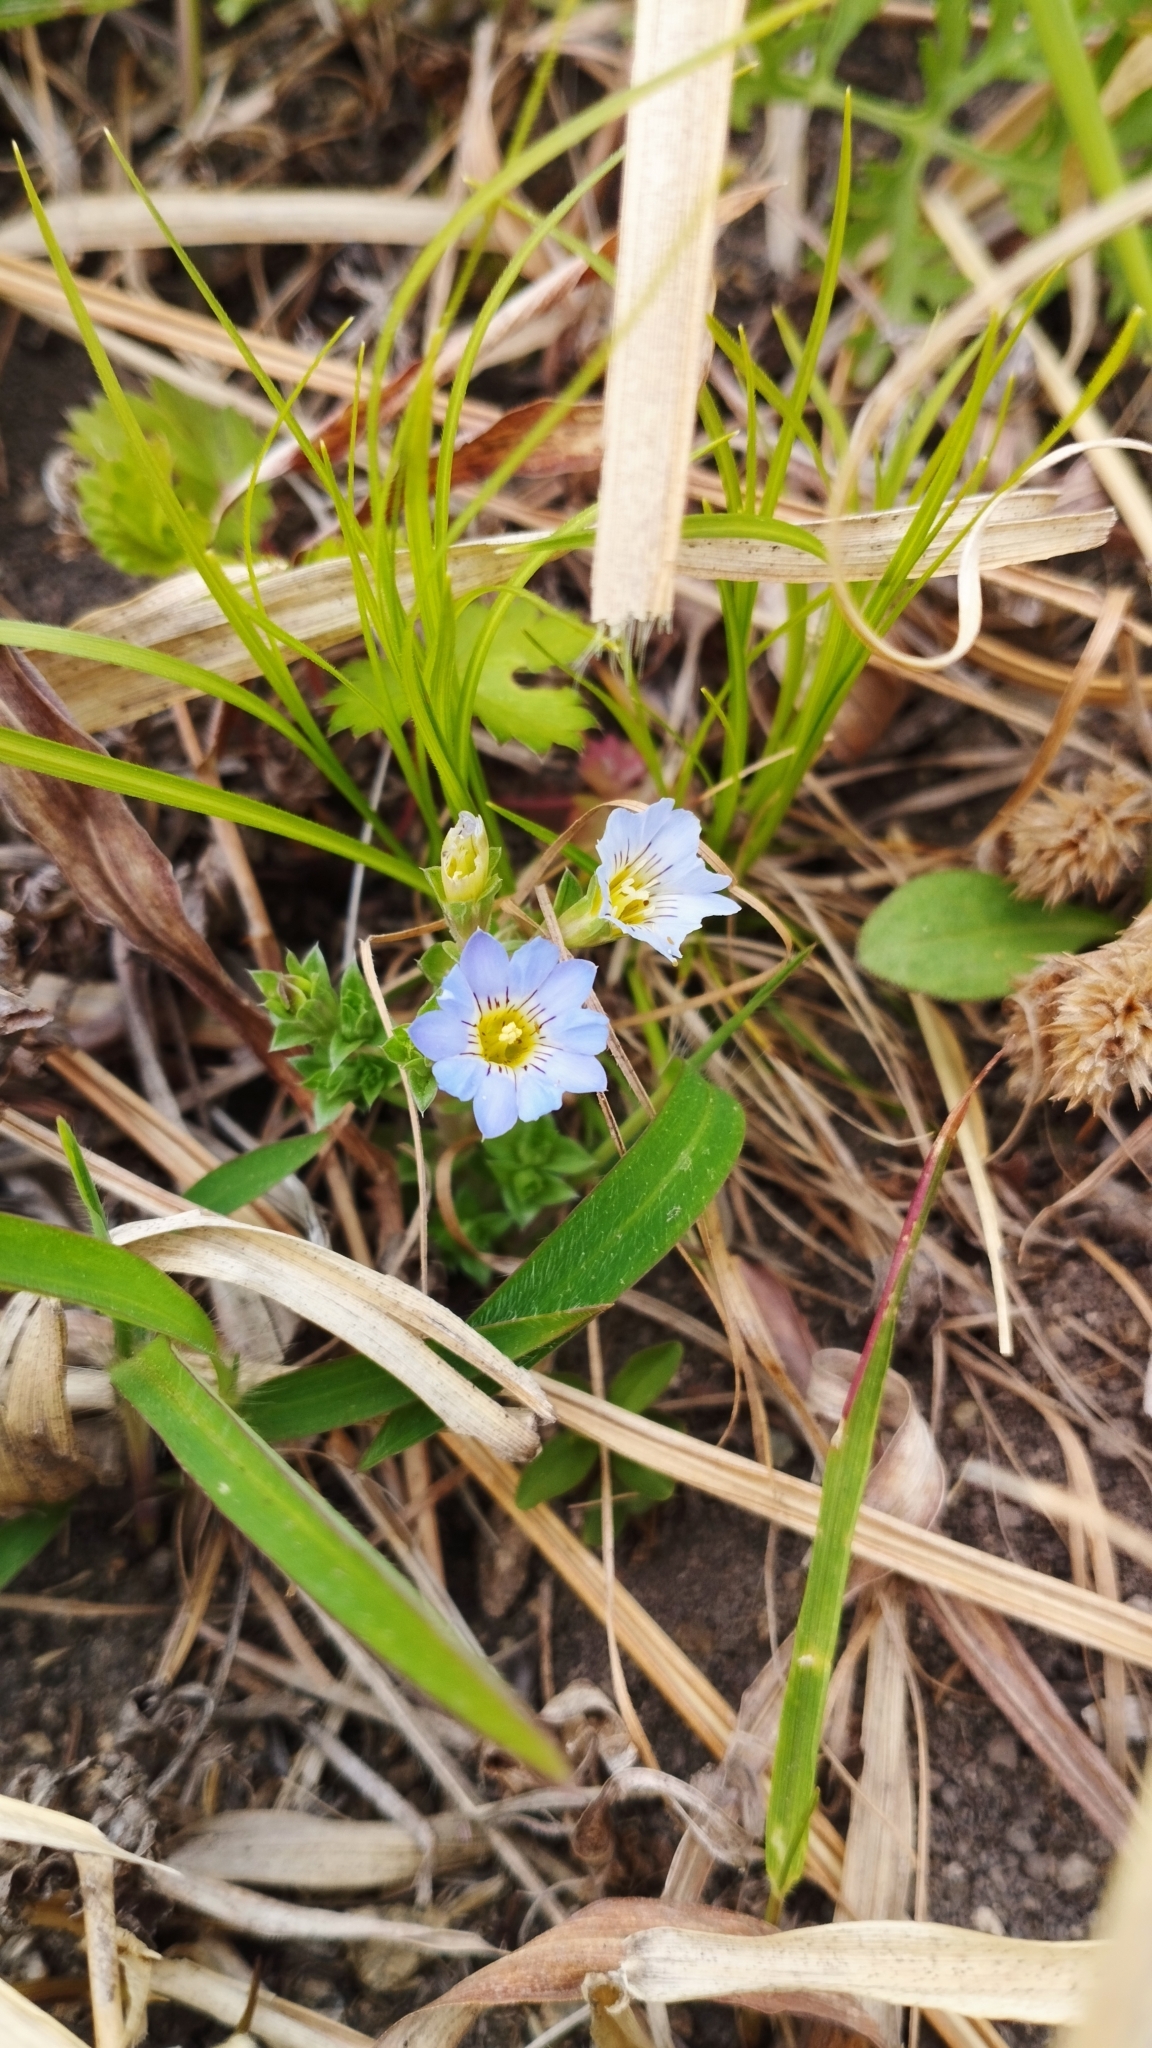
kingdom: Plantae
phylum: Tracheophyta
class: Magnoliopsida
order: Gentianales
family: Gentianaceae
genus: Gentiana
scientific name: Gentiana squarrosa
